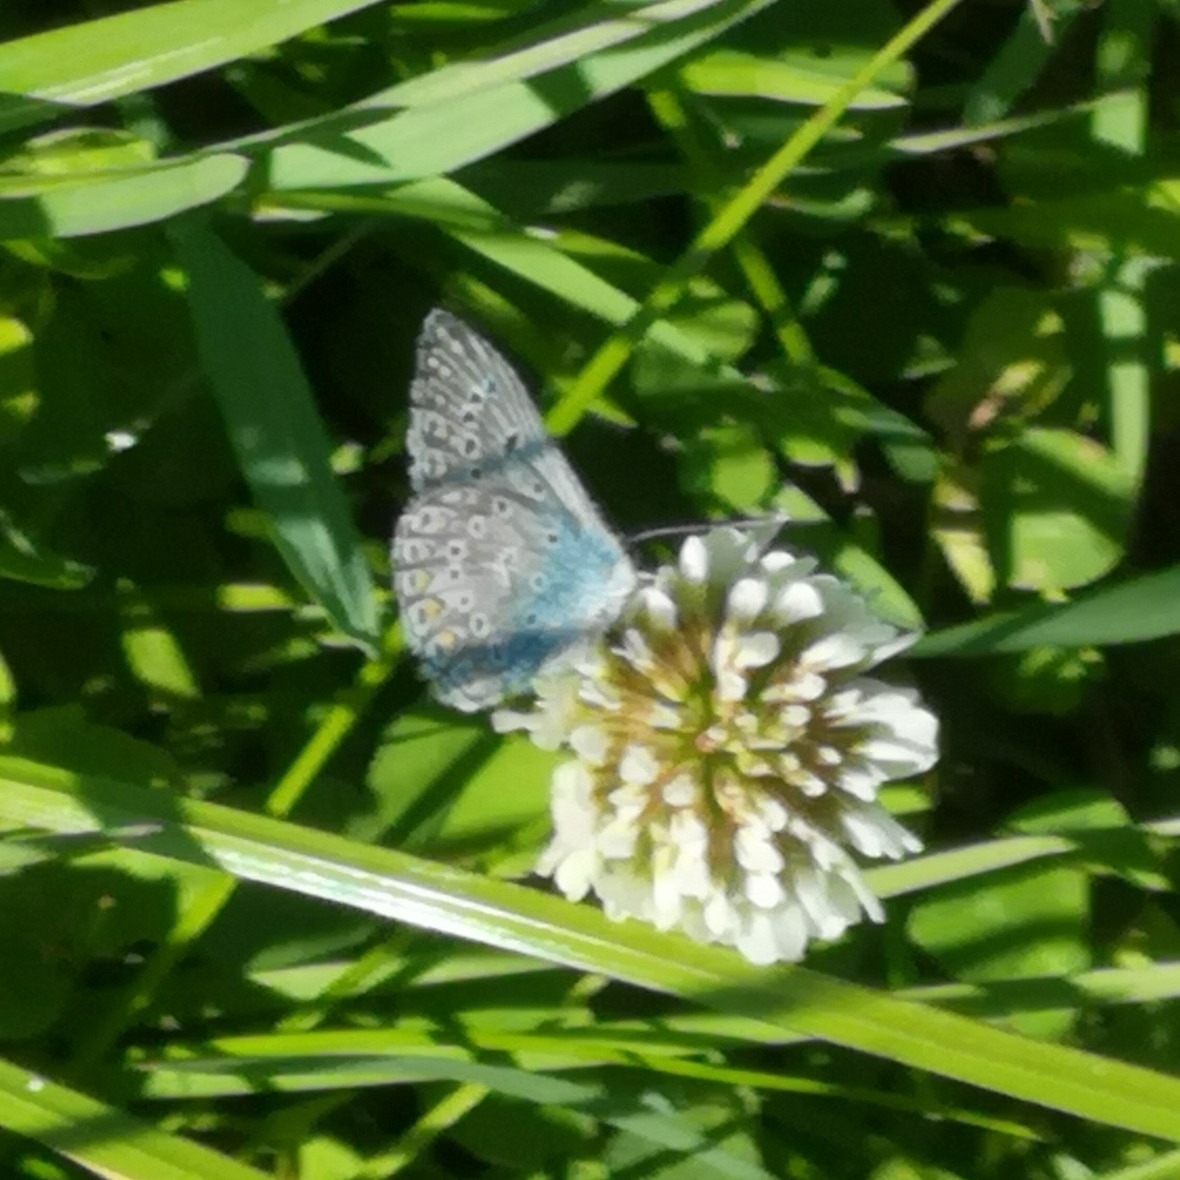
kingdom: Animalia
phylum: Arthropoda
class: Insecta
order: Lepidoptera
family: Lycaenidae
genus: Polyommatus
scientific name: Polyommatus icarus
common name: Common blue
